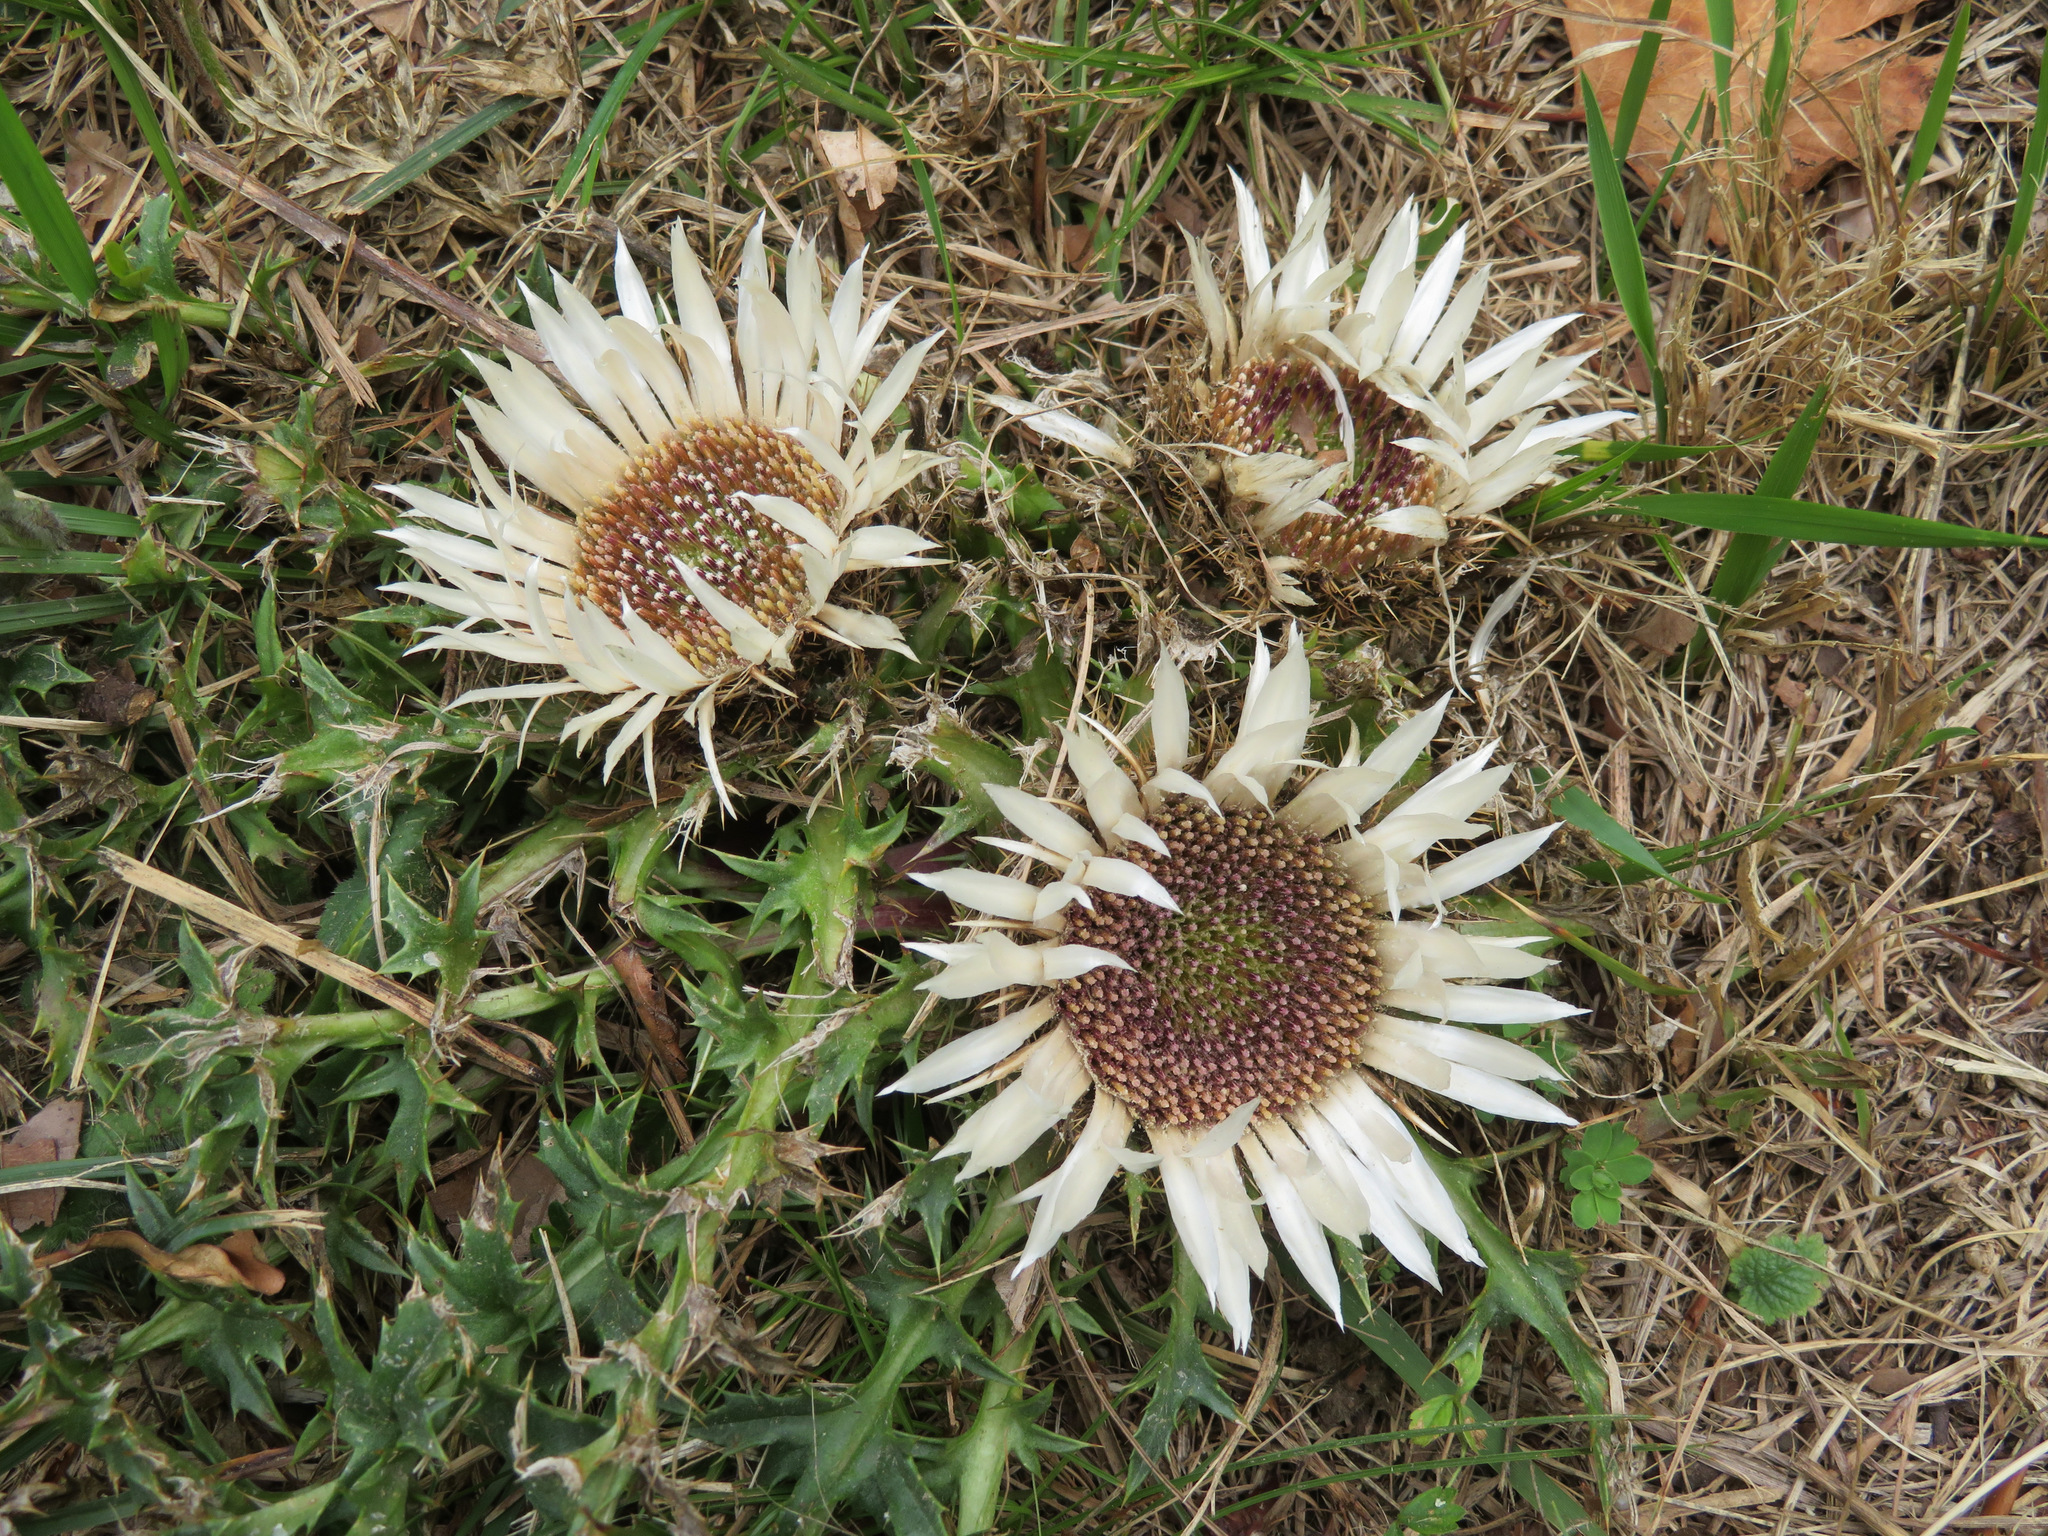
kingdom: Plantae
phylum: Tracheophyta
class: Magnoliopsida
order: Asterales
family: Asteraceae
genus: Carlina
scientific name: Carlina acaulis
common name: Stemless carline thistle
